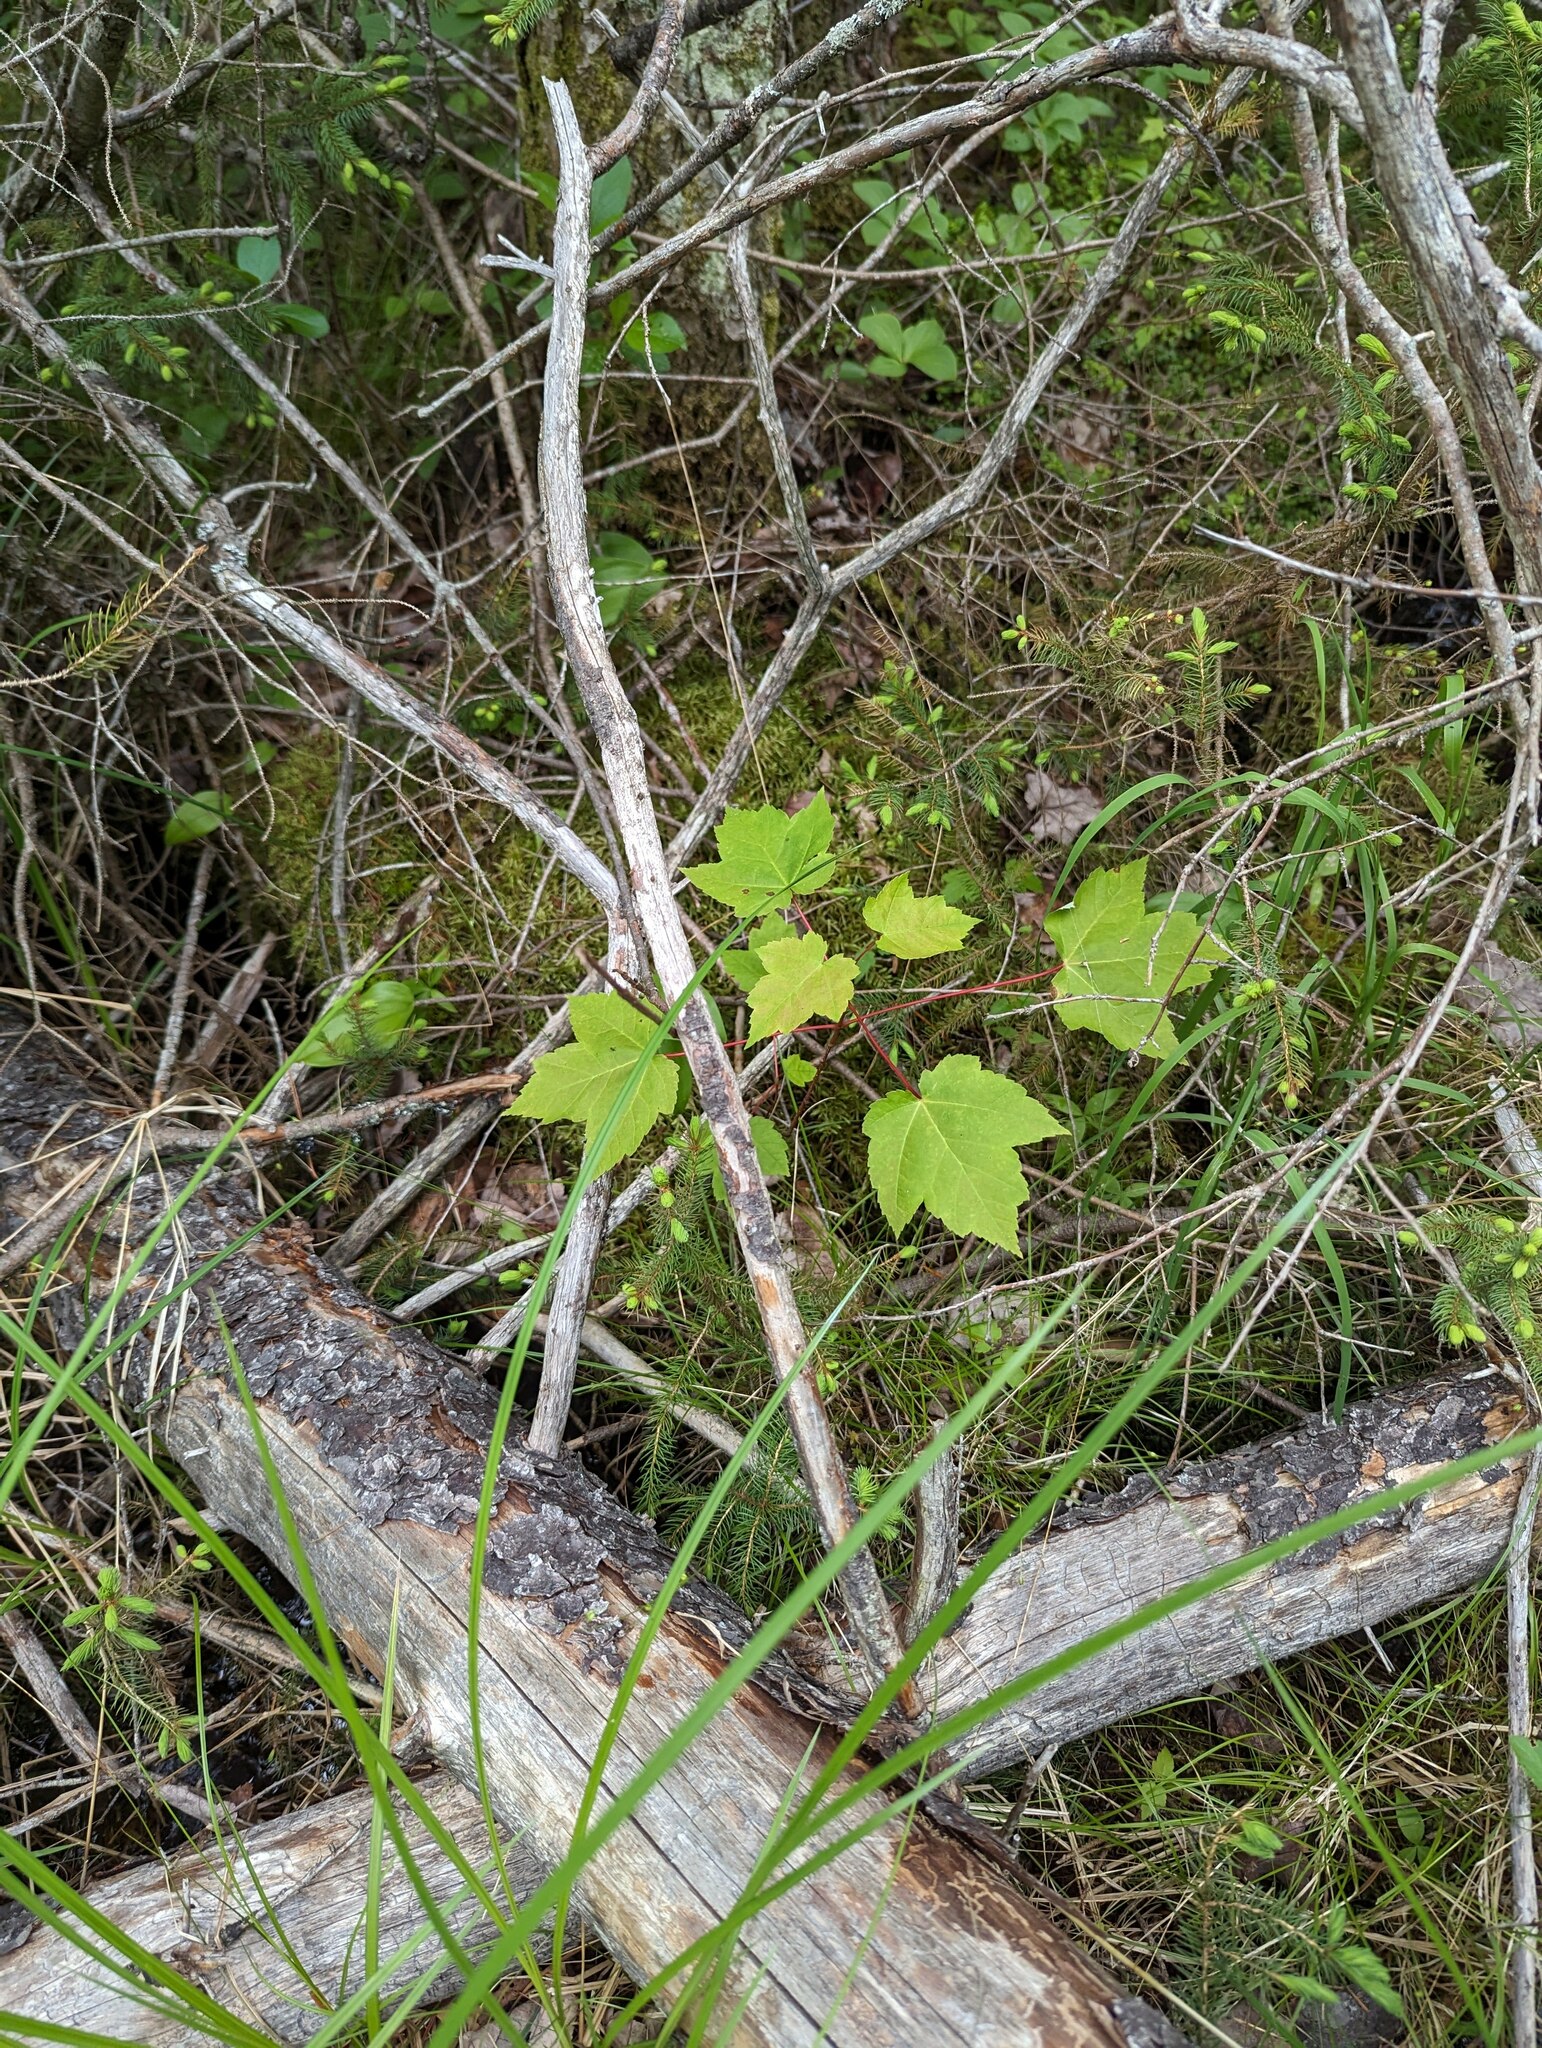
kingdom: Plantae
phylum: Tracheophyta
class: Magnoliopsida
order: Sapindales
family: Sapindaceae
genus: Acer
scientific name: Acer rubrum
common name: Red maple
